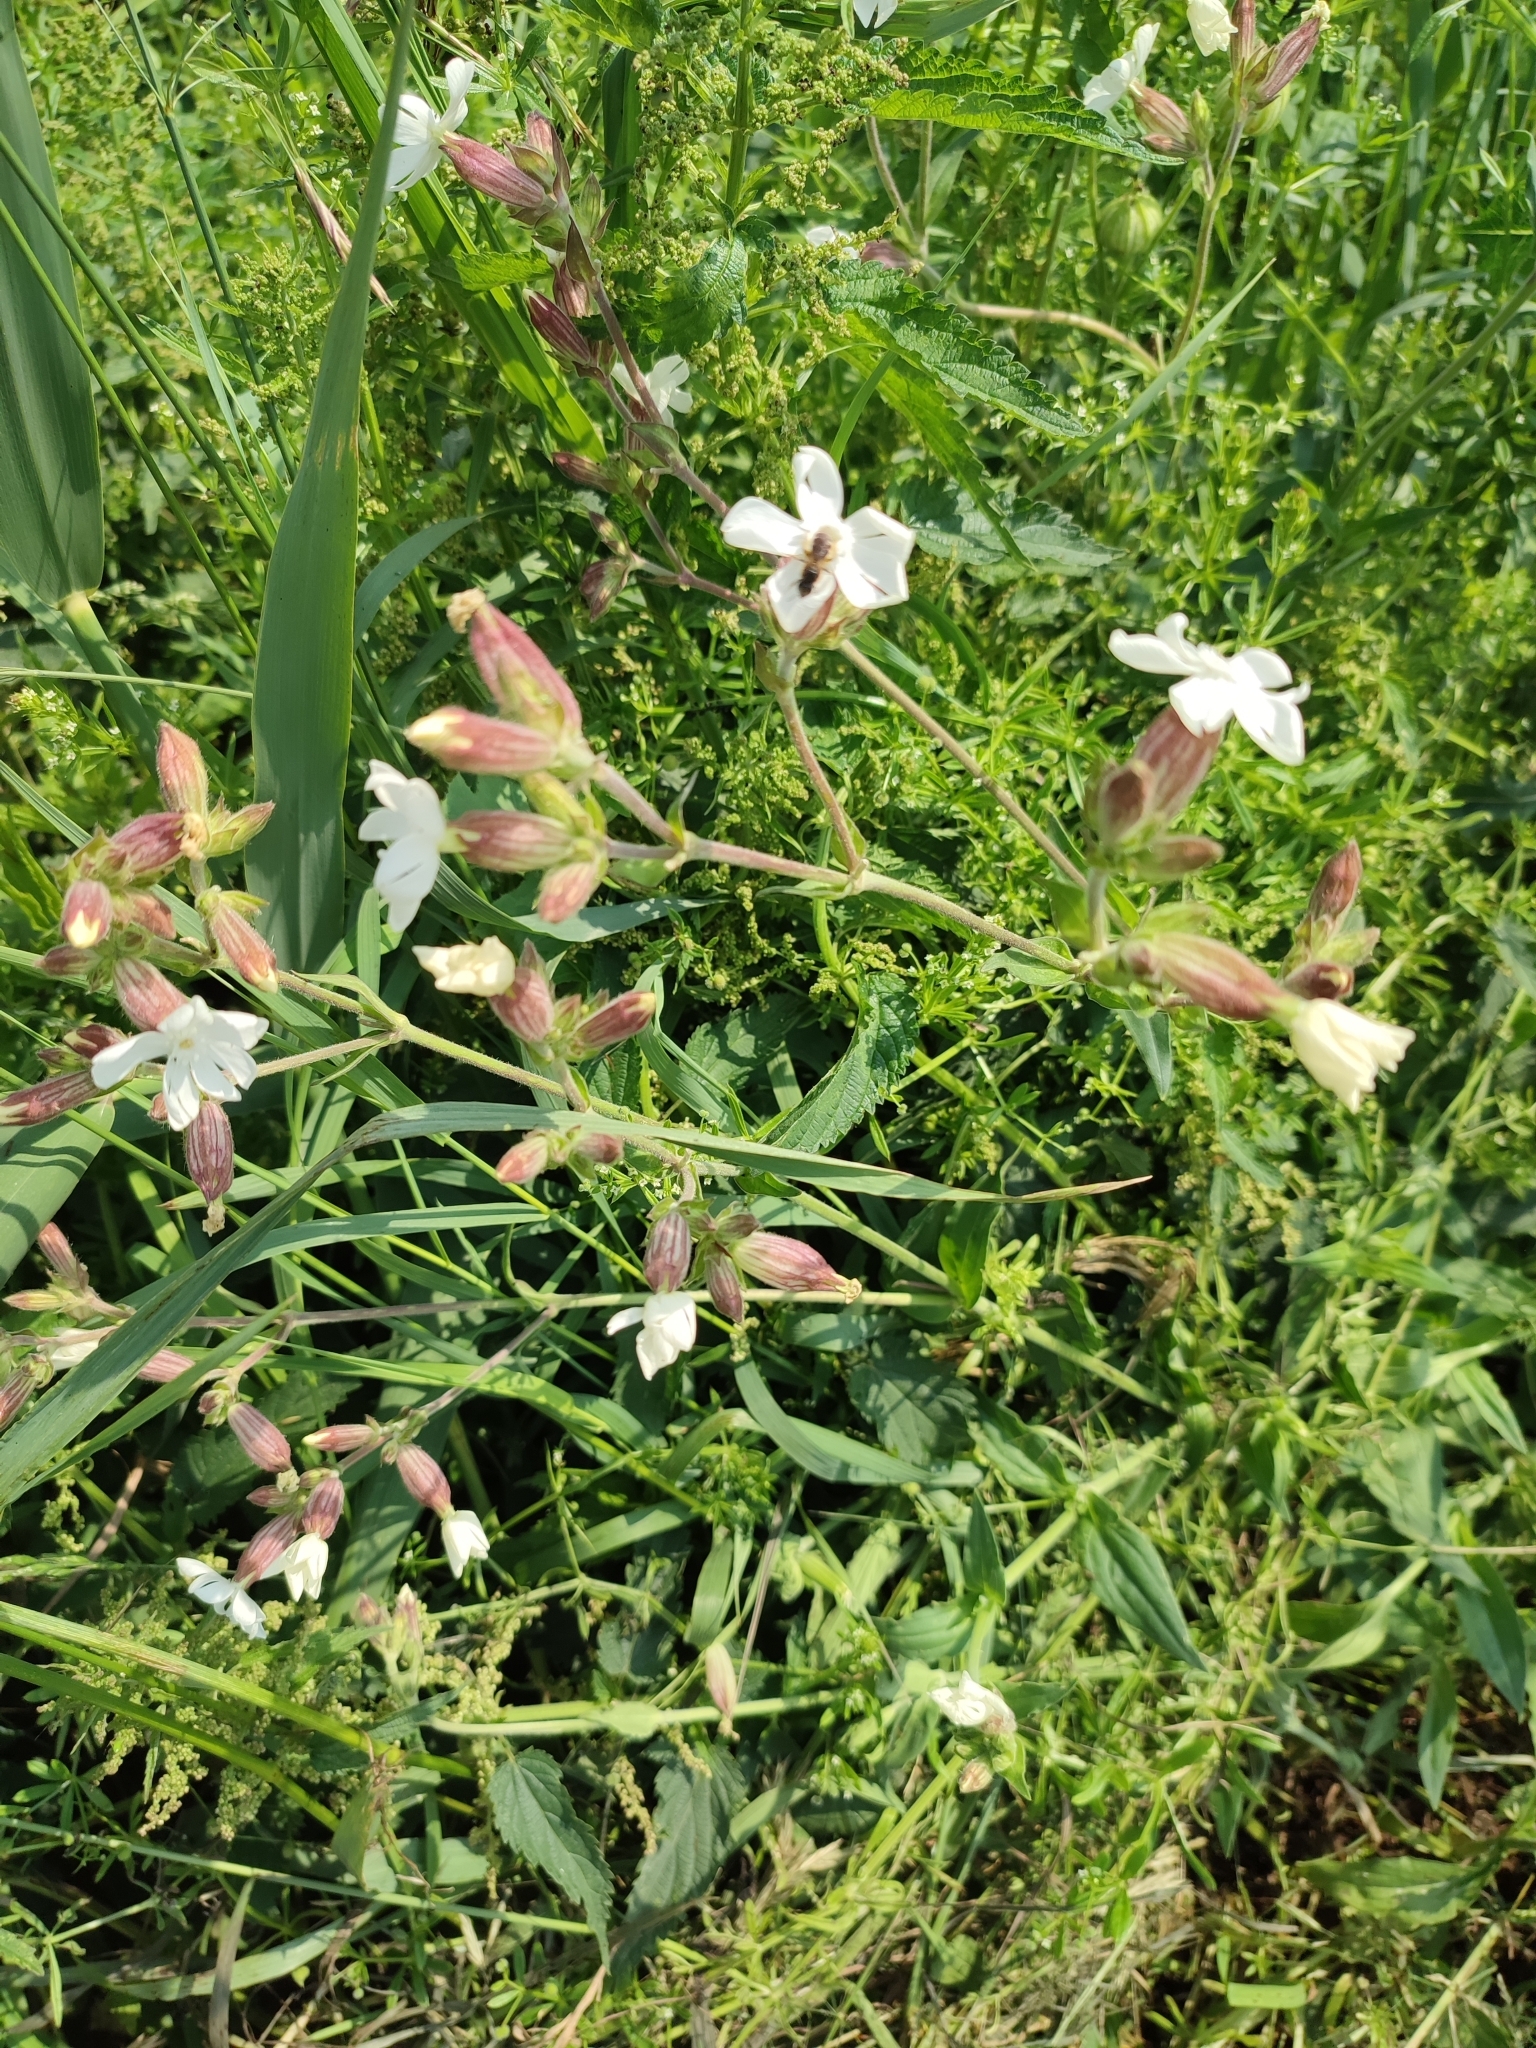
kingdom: Plantae
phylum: Tracheophyta
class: Magnoliopsida
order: Caryophyllales
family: Caryophyllaceae
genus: Silene
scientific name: Silene latifolia
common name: White campion
